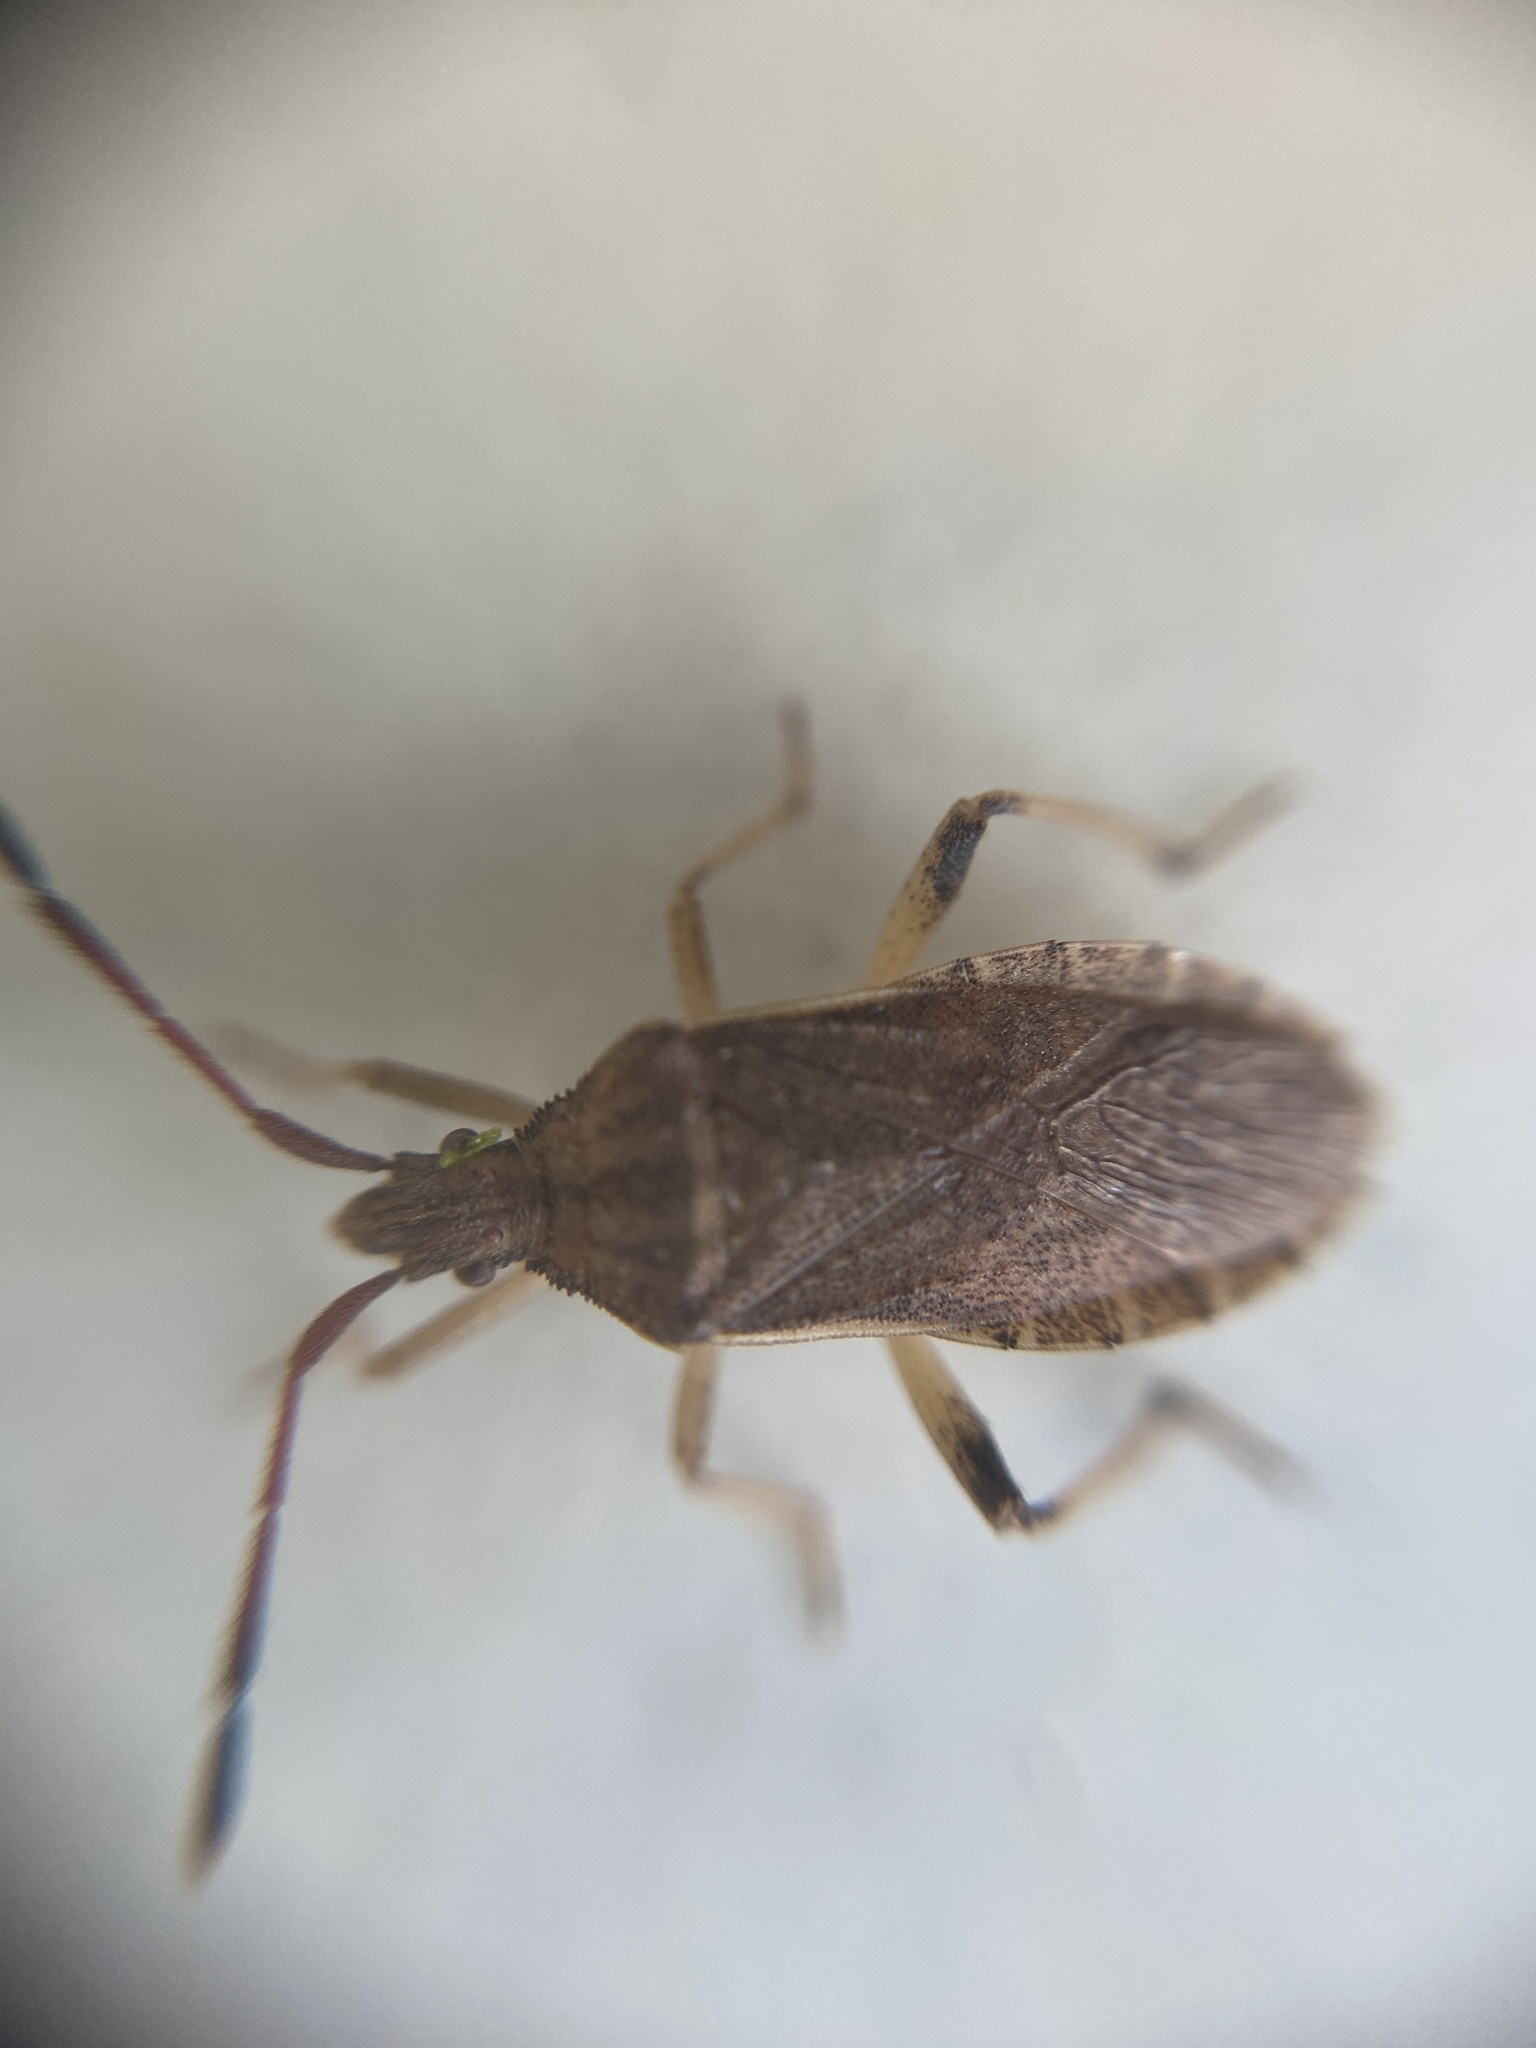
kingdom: Animalia
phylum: Arthropoda
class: Insecta
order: Hemiptera
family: Coreidae
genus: Ceraleptus
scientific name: Ceraleptus lividus
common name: Slender-horned leatherbug
